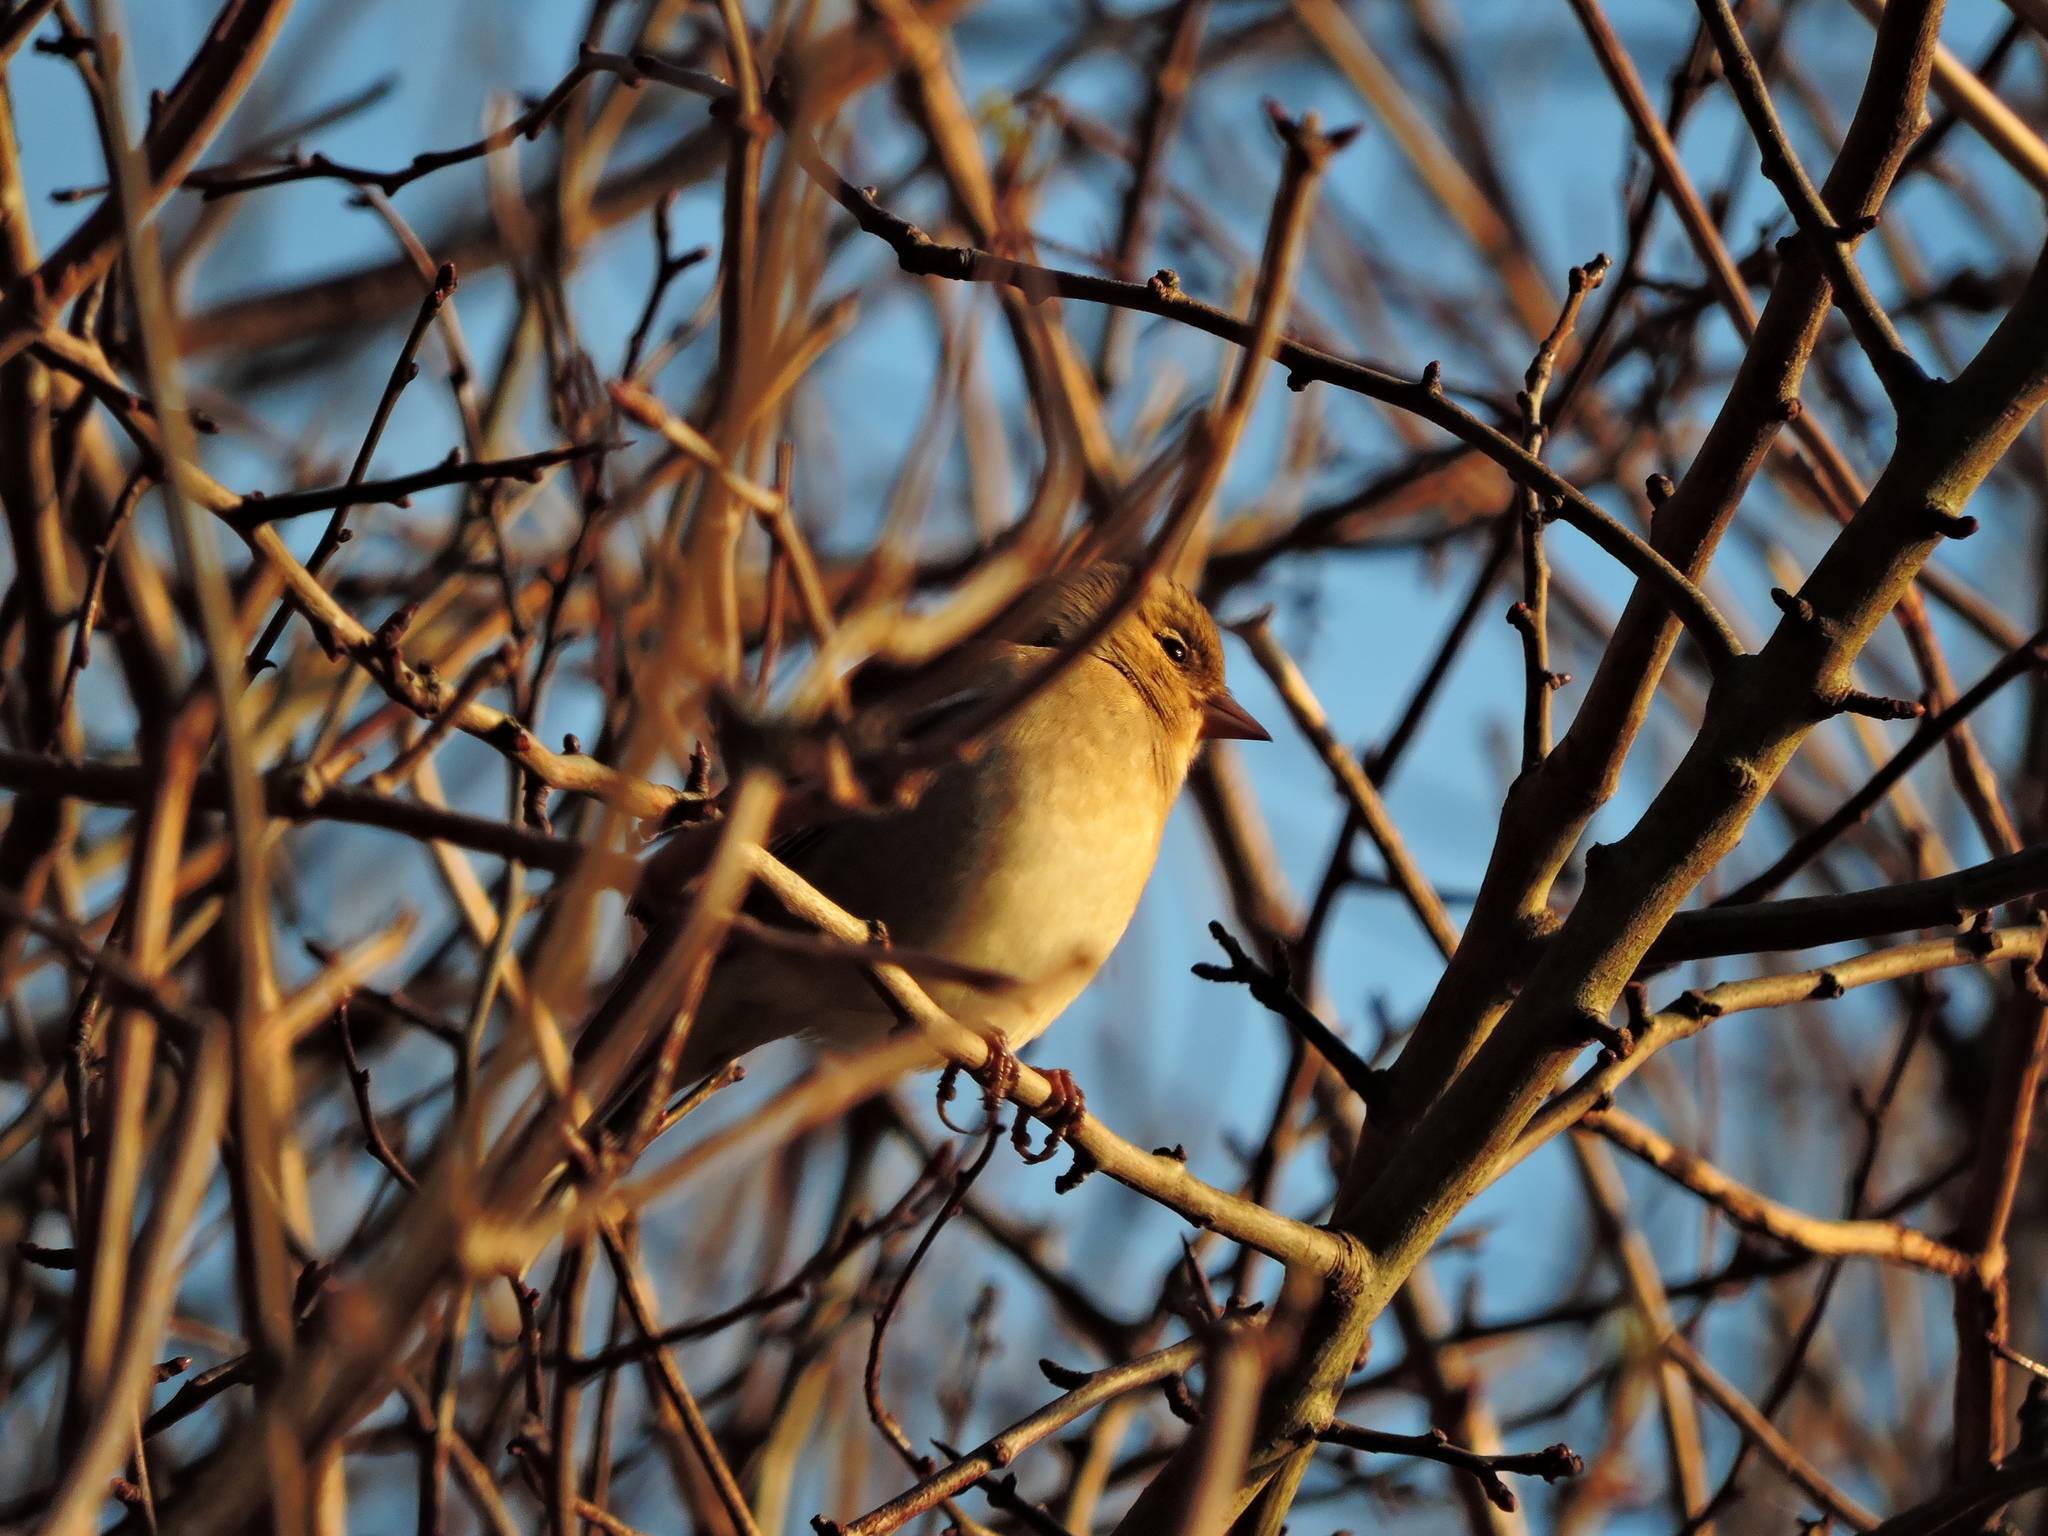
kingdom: Animalia
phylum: Chordata
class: Aves
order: Passeriformes
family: Fringillidae
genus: Fringilla
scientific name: Fringilla coelebs
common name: Common chaffinch
